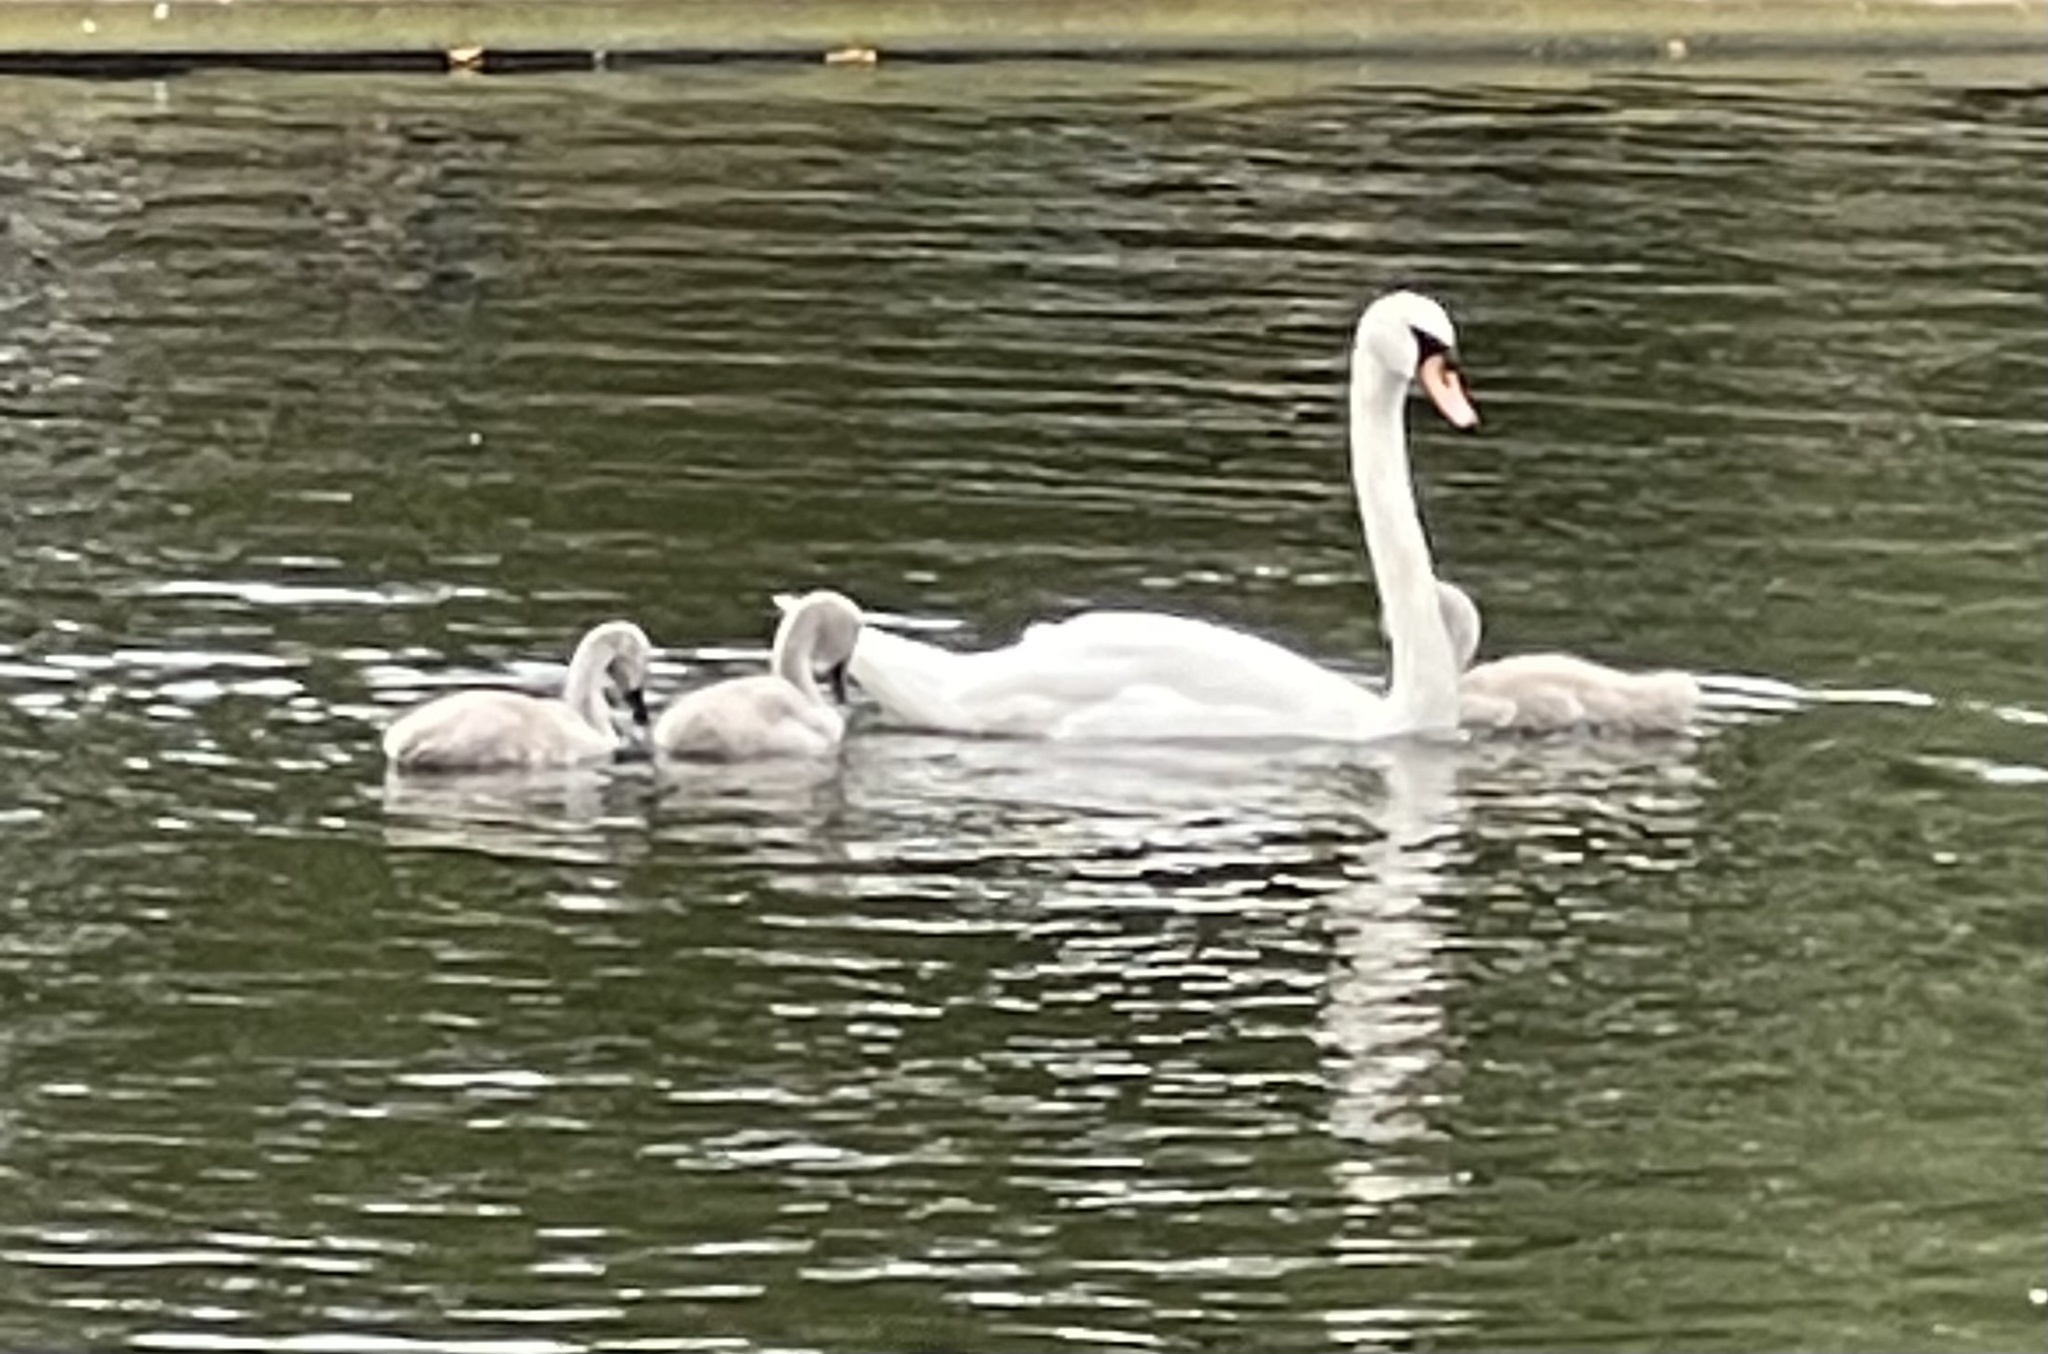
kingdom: Animalia
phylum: Chordata
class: Aves
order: Anseriformes
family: Anatidae
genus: Cygnus
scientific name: Cygnus olor
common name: Mute swan
